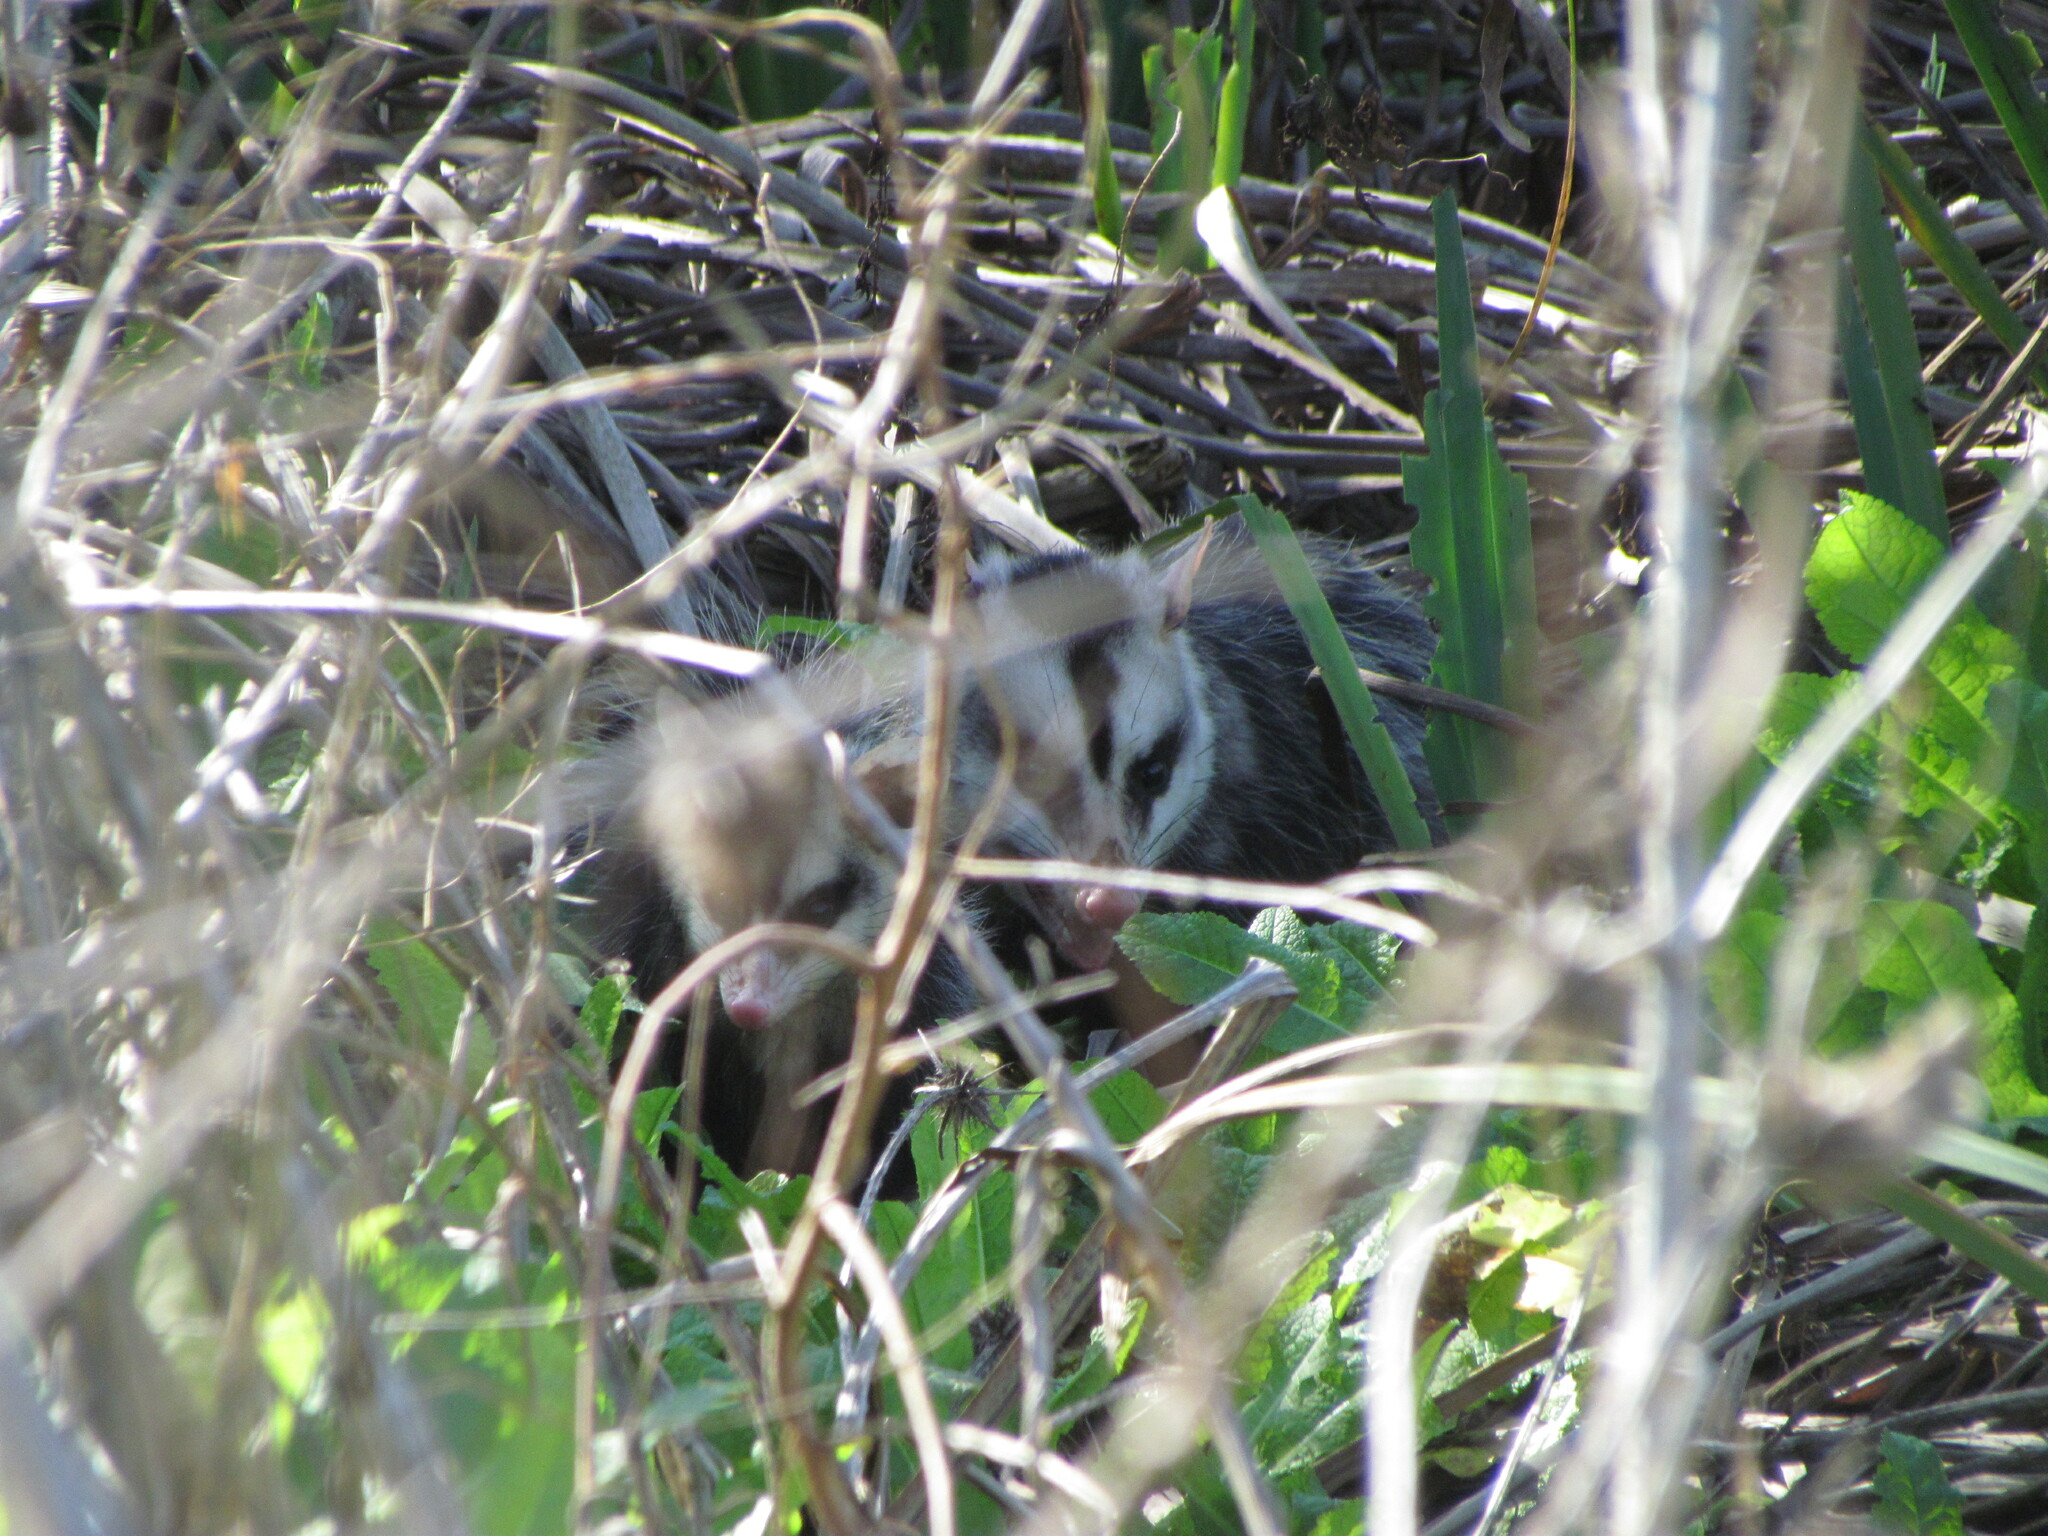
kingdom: Animalia
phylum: Chordata
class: Mammalia
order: Didelphimorphia
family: Didelphidae
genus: Didelphis
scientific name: Didelphis albiventris
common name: White-eared opossum
